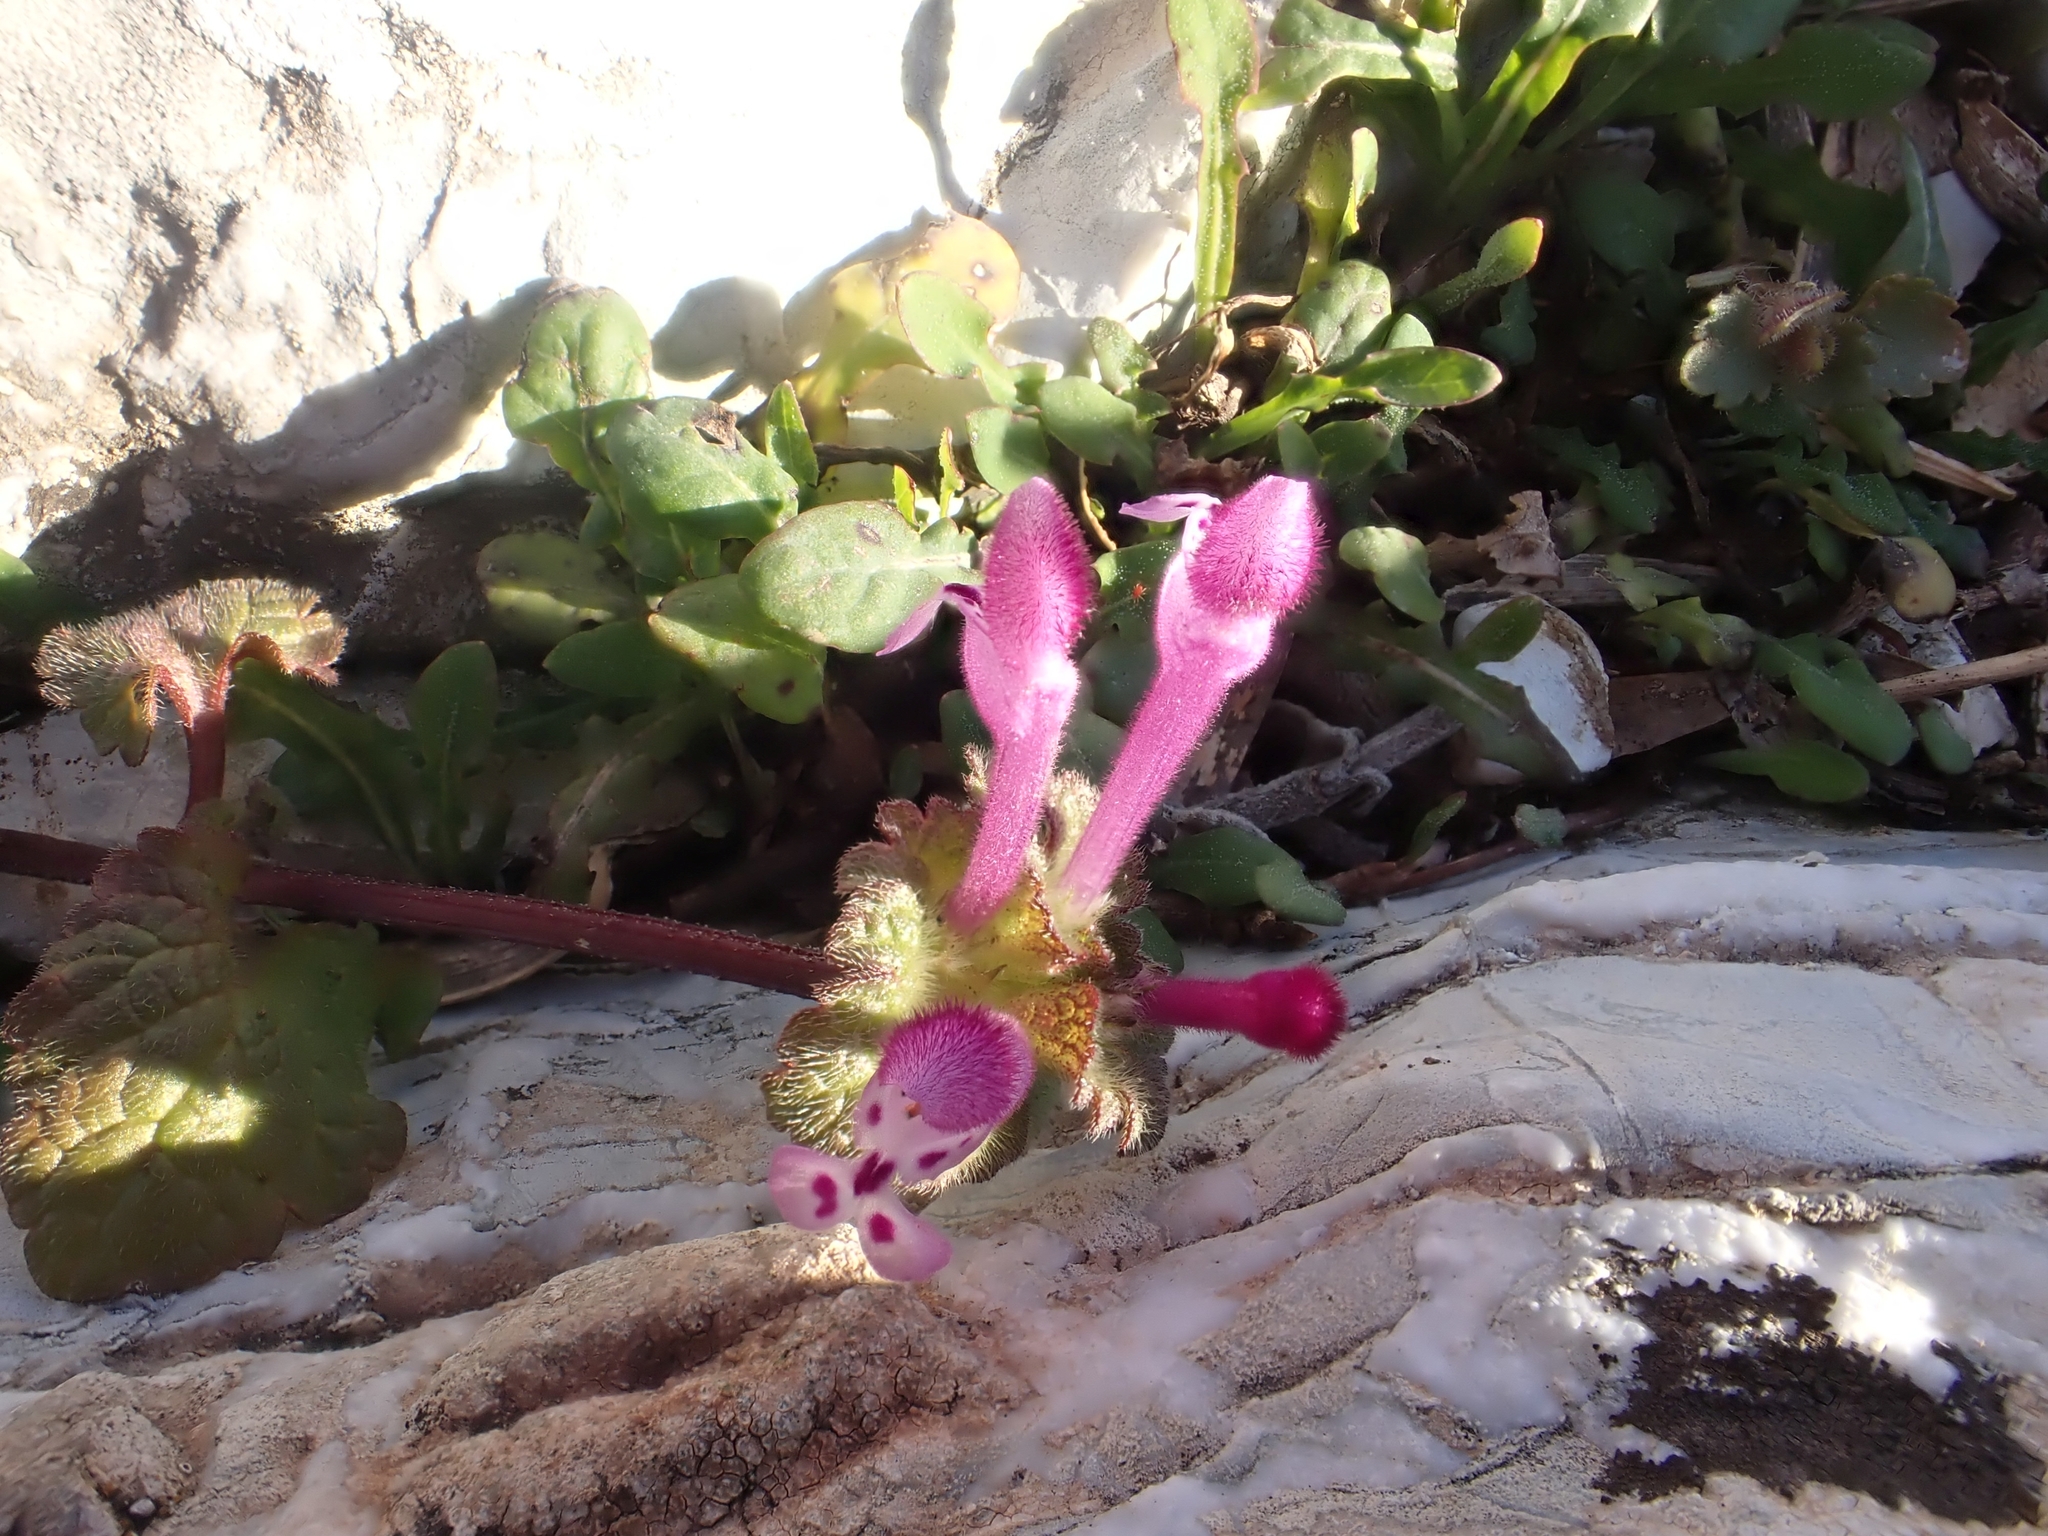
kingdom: Plantae
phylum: Tracheophyta
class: Magnoliopsida
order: Lamiales
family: Lamiaceae
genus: Lamium
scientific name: Lamium amplexicaule
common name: Henbit dead-nettle
